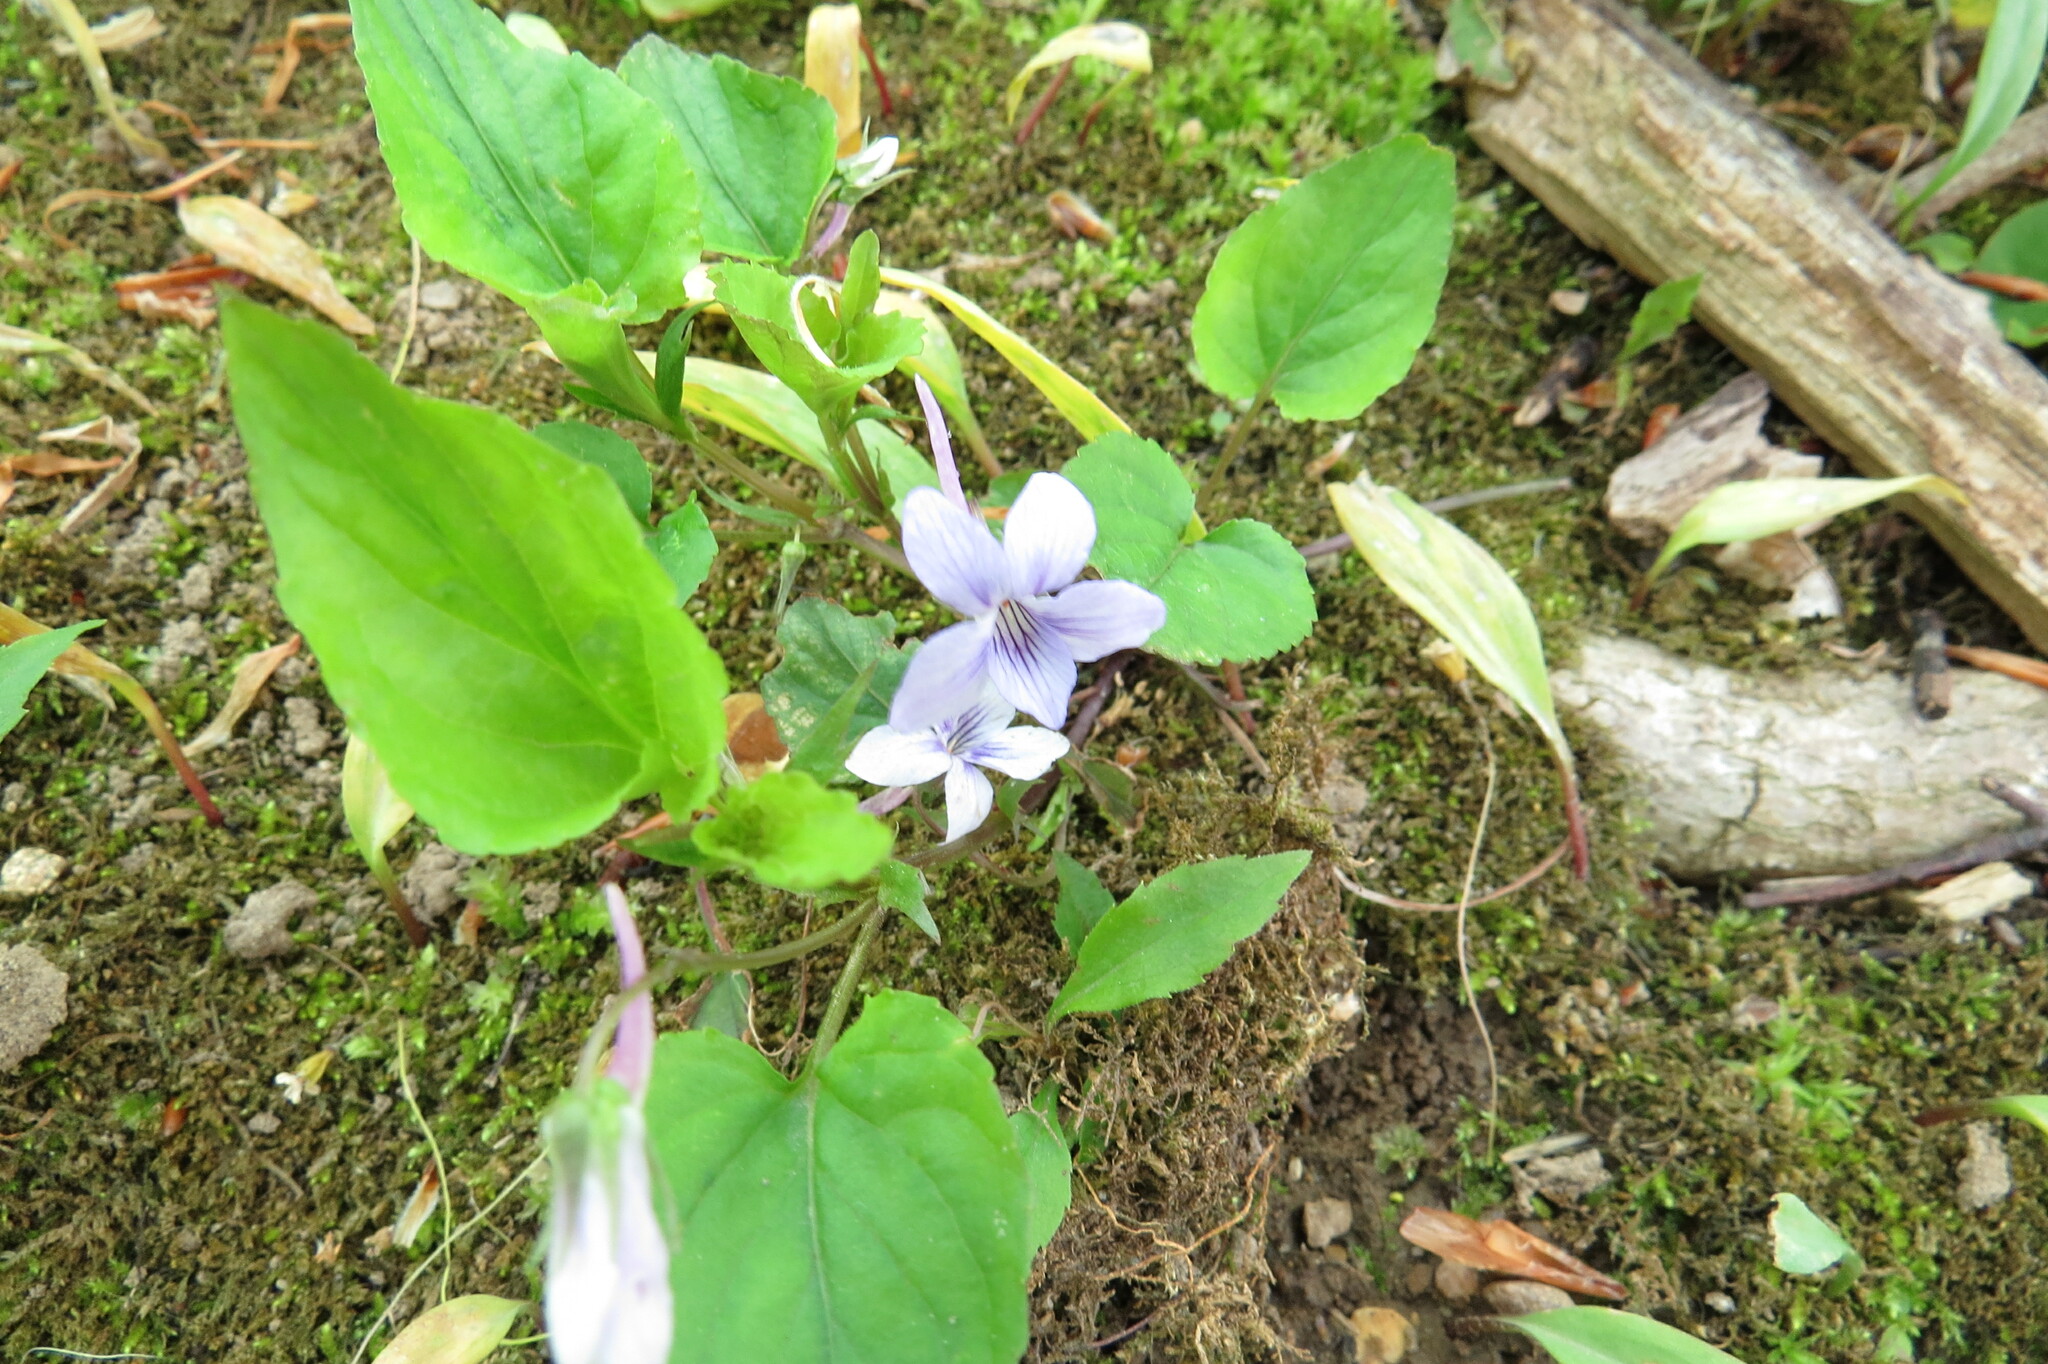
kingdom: Plantae
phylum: Tracheophyta
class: Magnoliopsida
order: Malpighiales
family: Violaceae
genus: Viola
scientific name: Viola rostrata
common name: Long-spur violet
